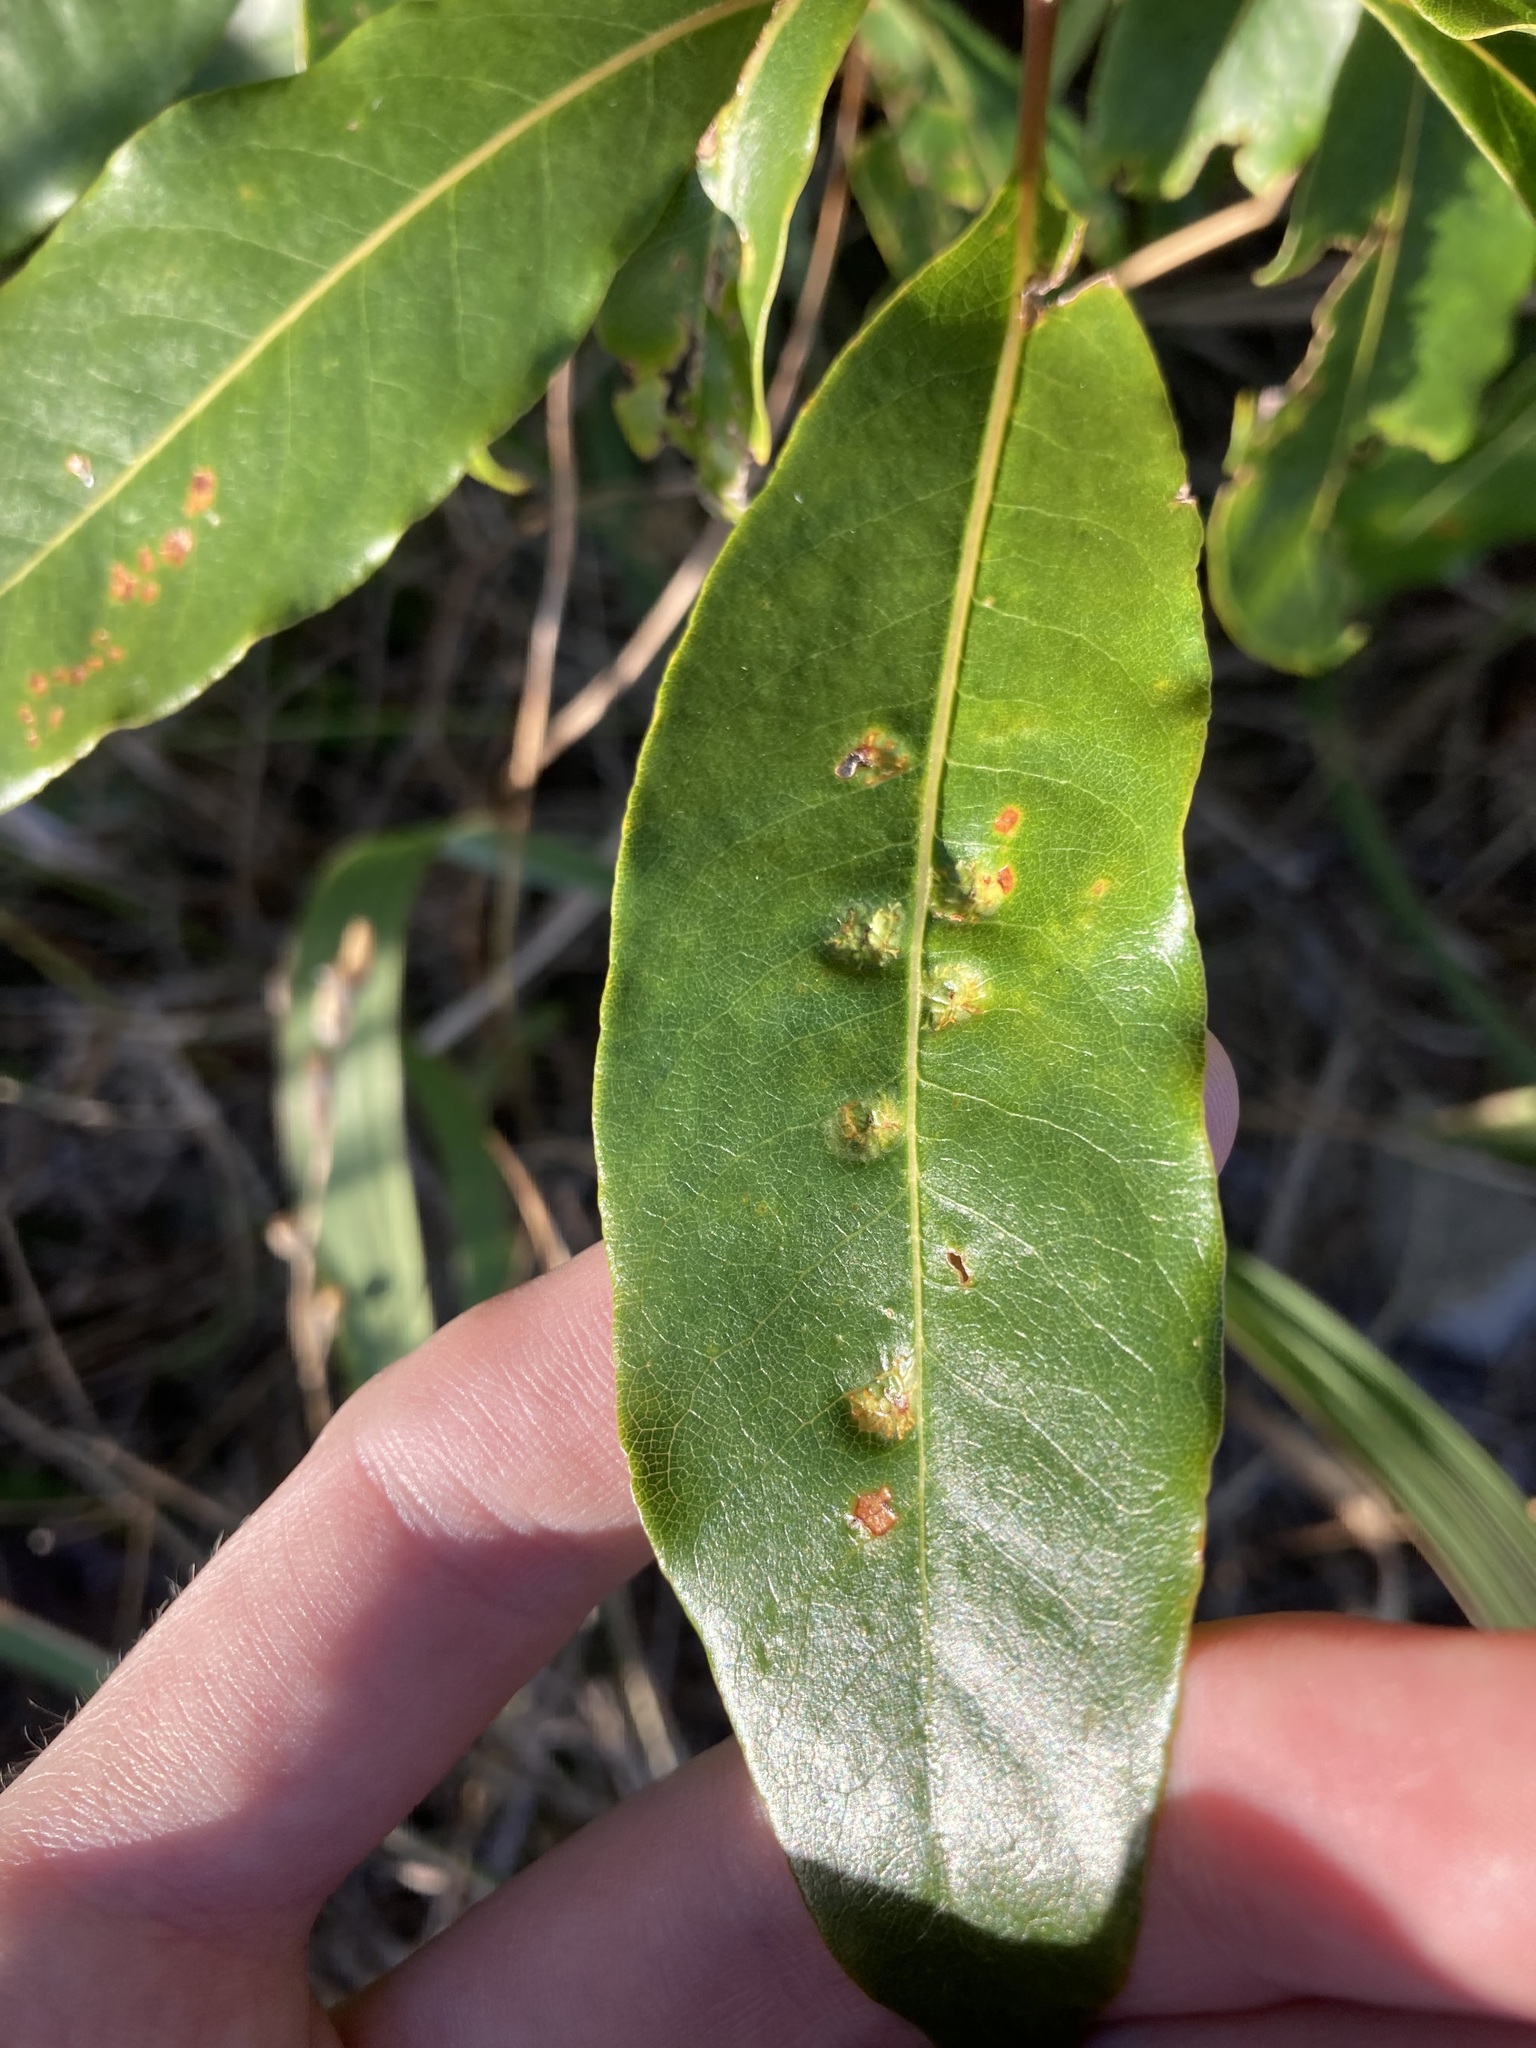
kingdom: Animalia
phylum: Arthropoda
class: Insecta
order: Diptera
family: Agromyzidae
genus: Phytoliriomyza
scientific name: Phytoliriomyza pittosporophylli
